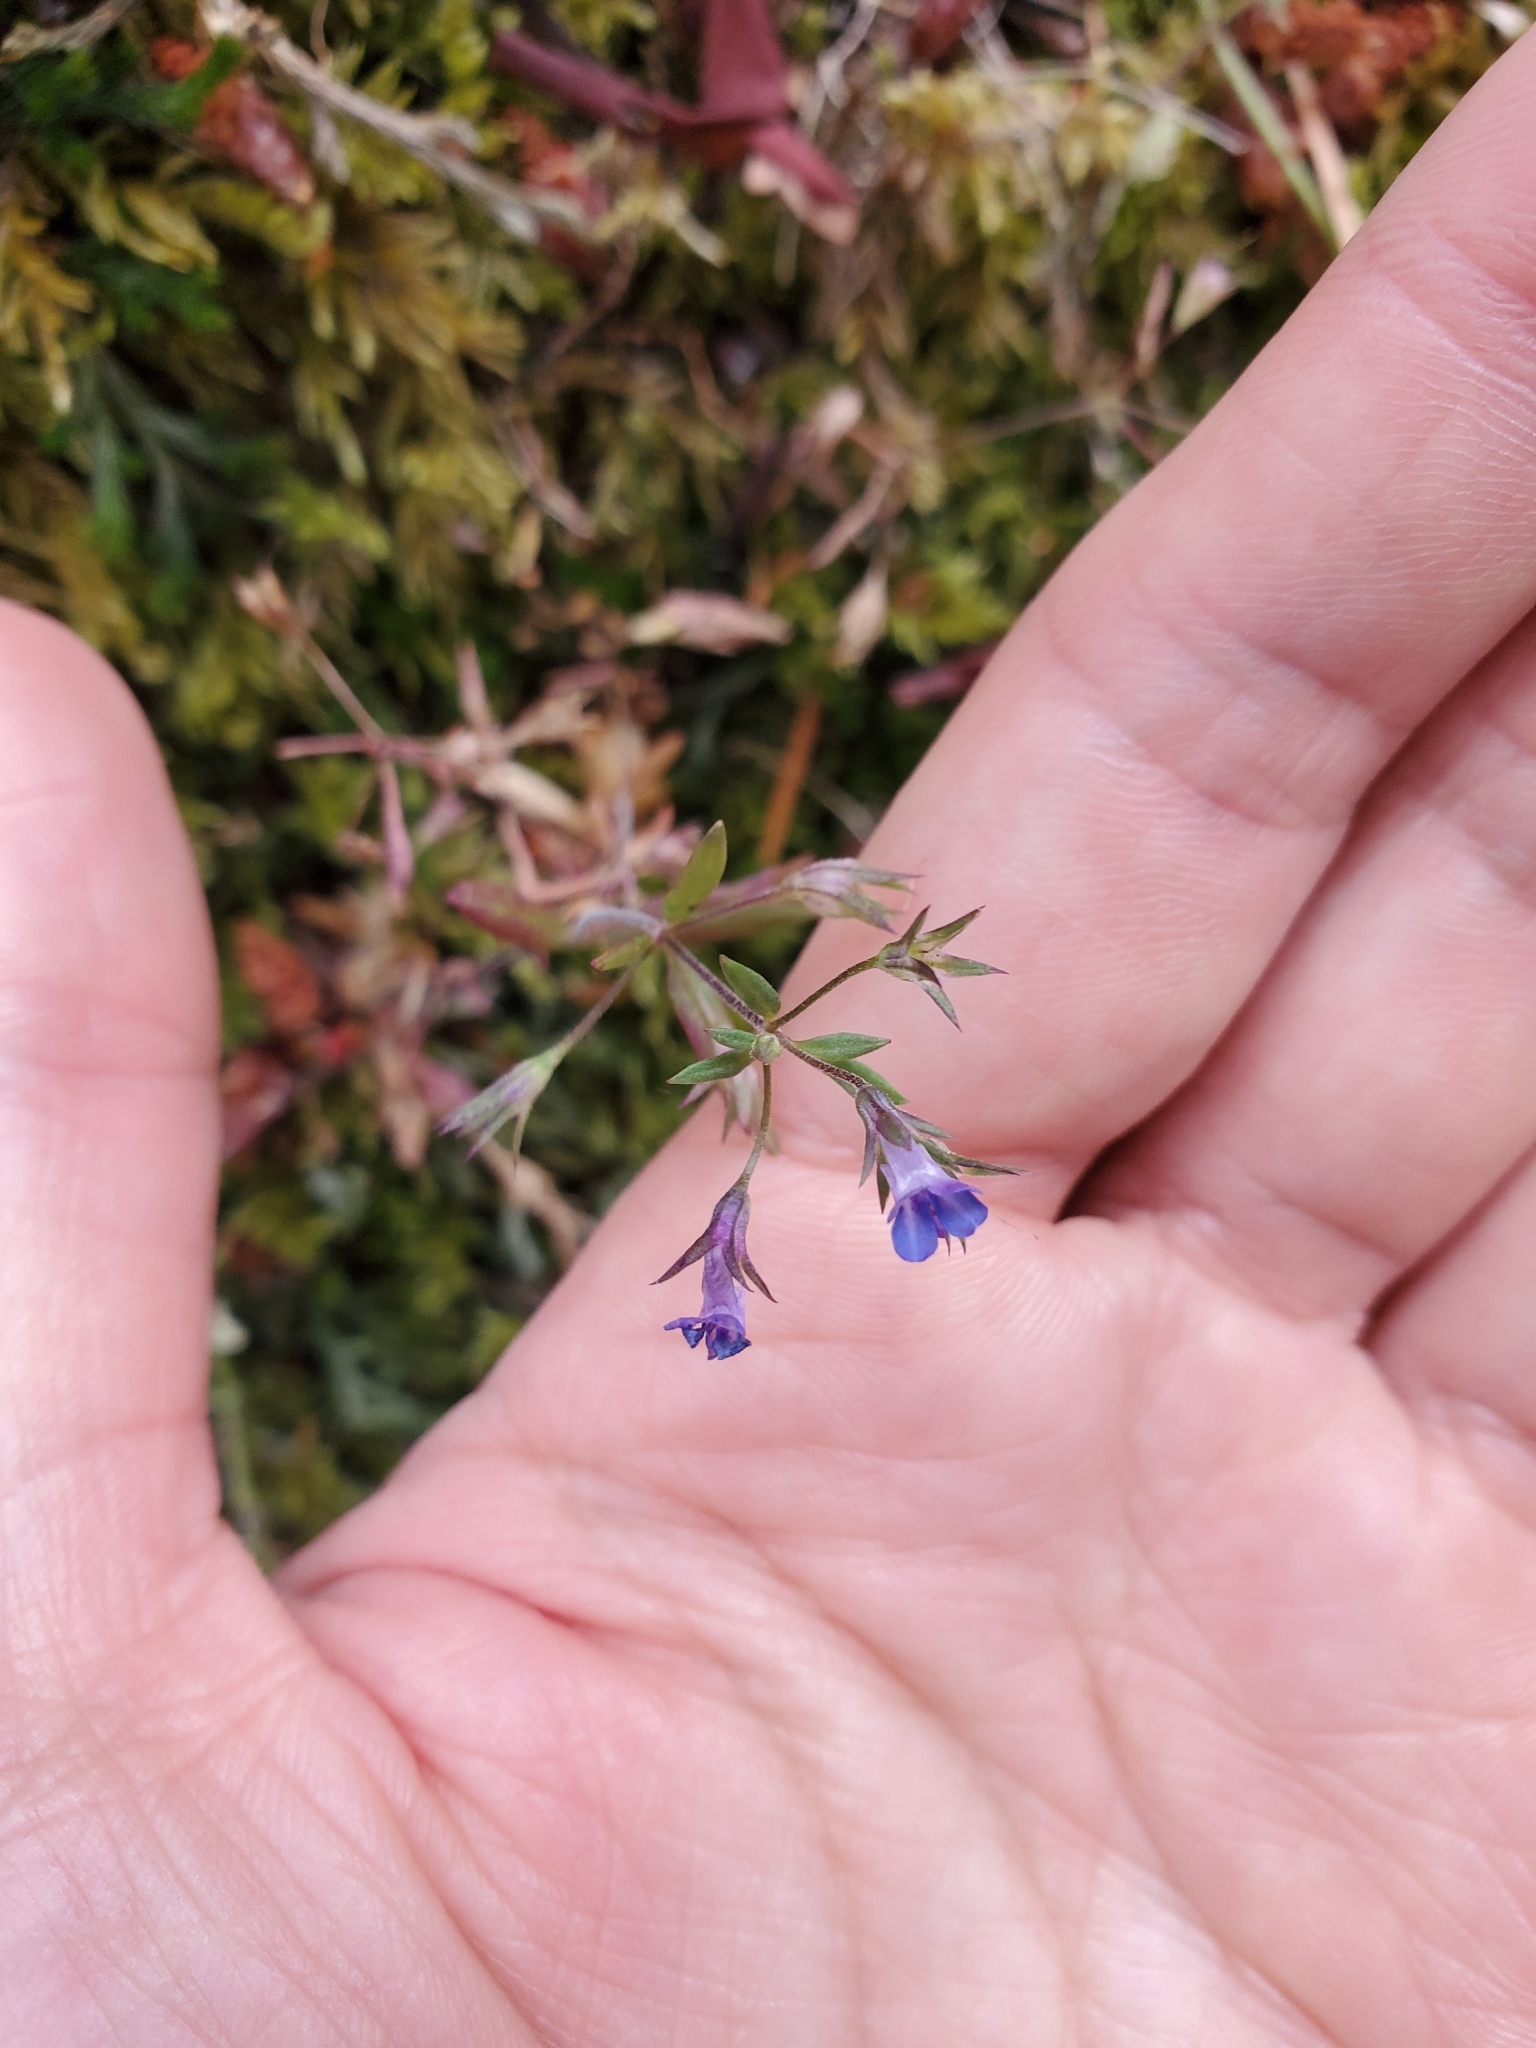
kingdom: Plantae
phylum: Tracheophyta
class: Magnoliopsida
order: Lamiales
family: Plantaginaceae
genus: Collinsia
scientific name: Collinsia parviflora
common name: Blue-lips
